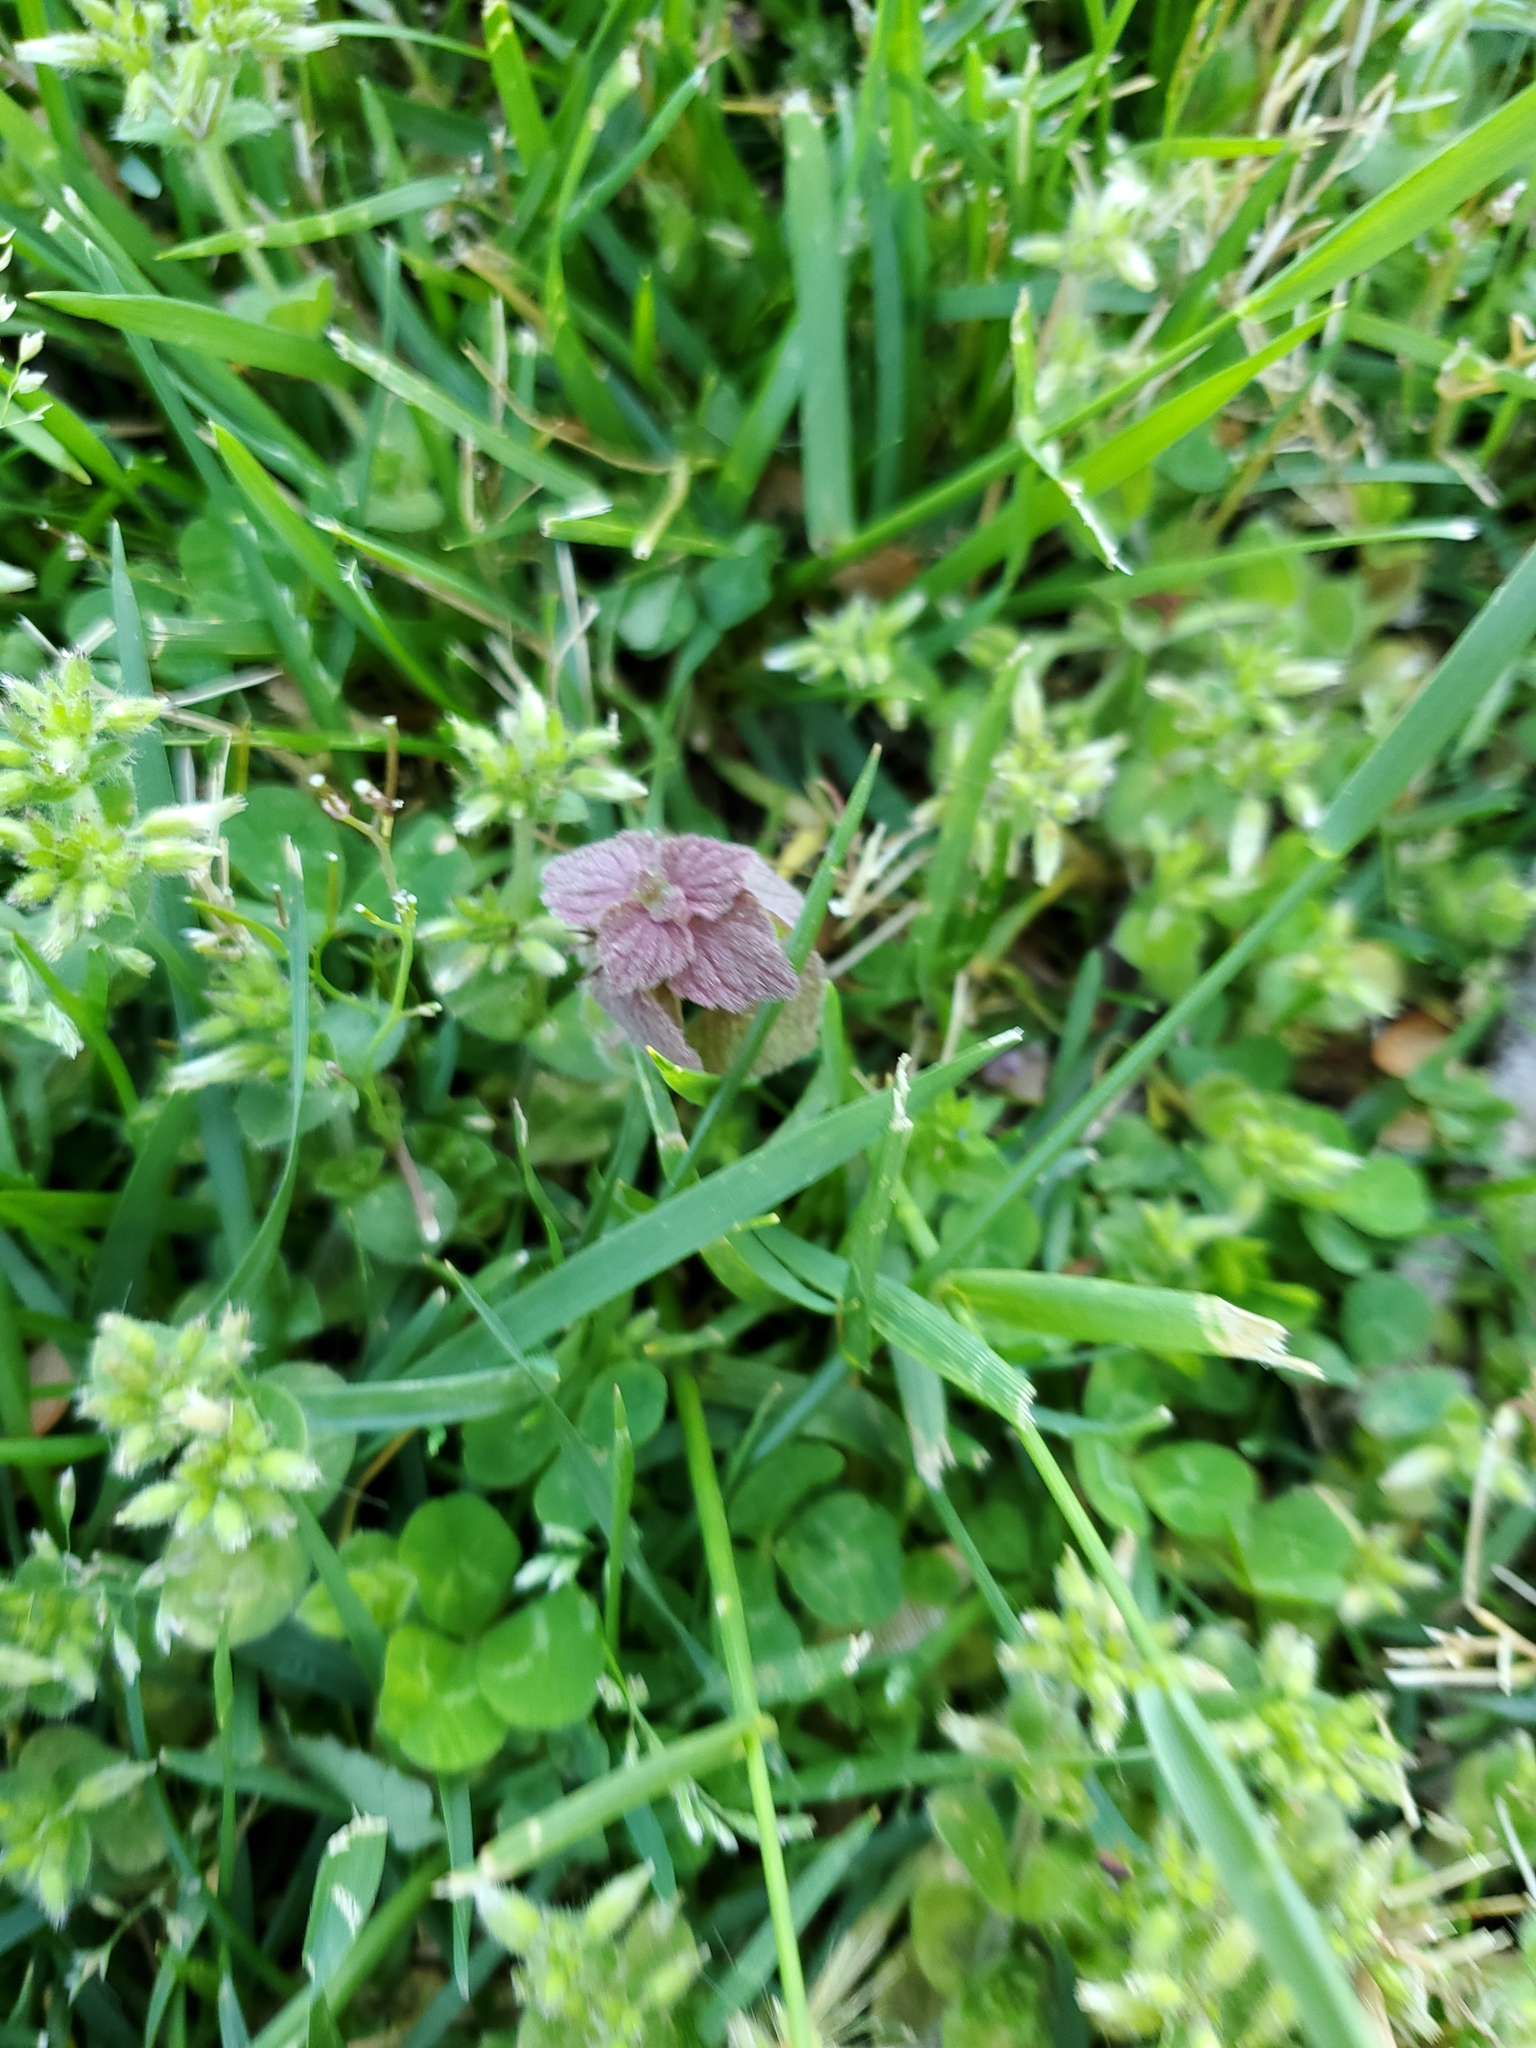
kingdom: Plantae
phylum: Tracheophyta
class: Magnoliopsida
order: Lamiales
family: Lamiaceae
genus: Lamium
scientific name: Lamium purpureum
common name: Red dead-nettle
